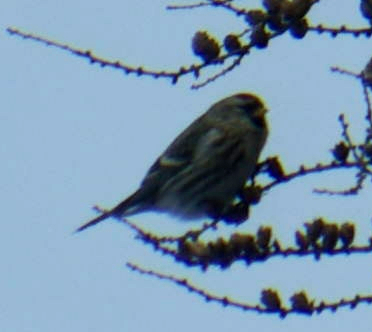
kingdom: Animalia
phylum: Chordata
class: Aves
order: Passeriformes
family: Fringillidae
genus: Acanthis
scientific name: Acanthis flammea
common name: Common redpoll
